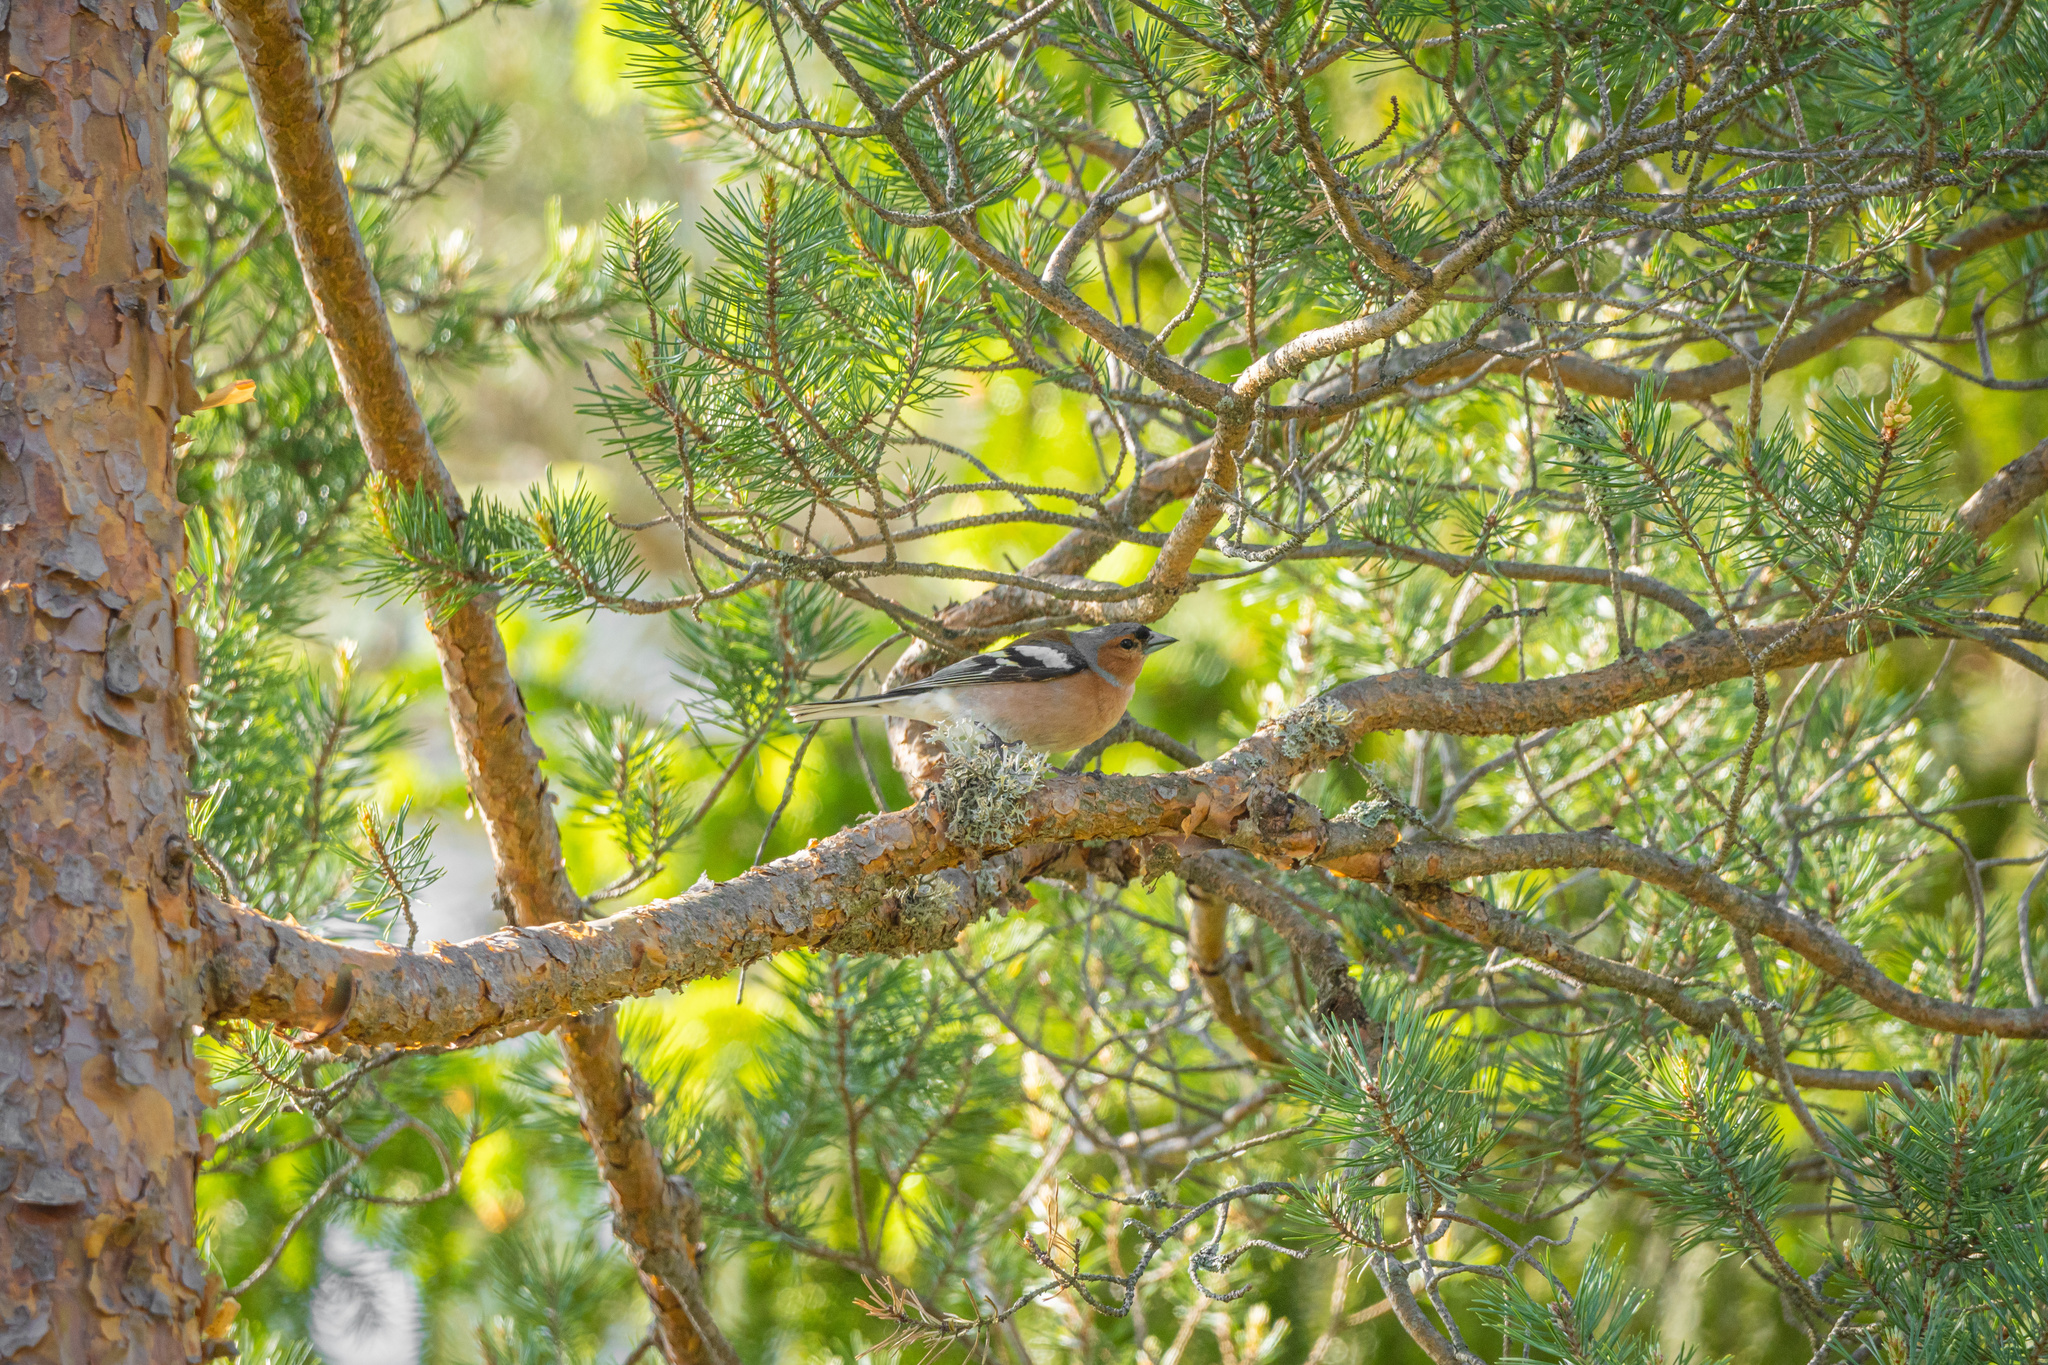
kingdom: Animalia
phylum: Chordata
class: Aves
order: Passeriformes
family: Fringillidae
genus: Fringilla
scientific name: Fringilla coelebs
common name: Common chaffinch
